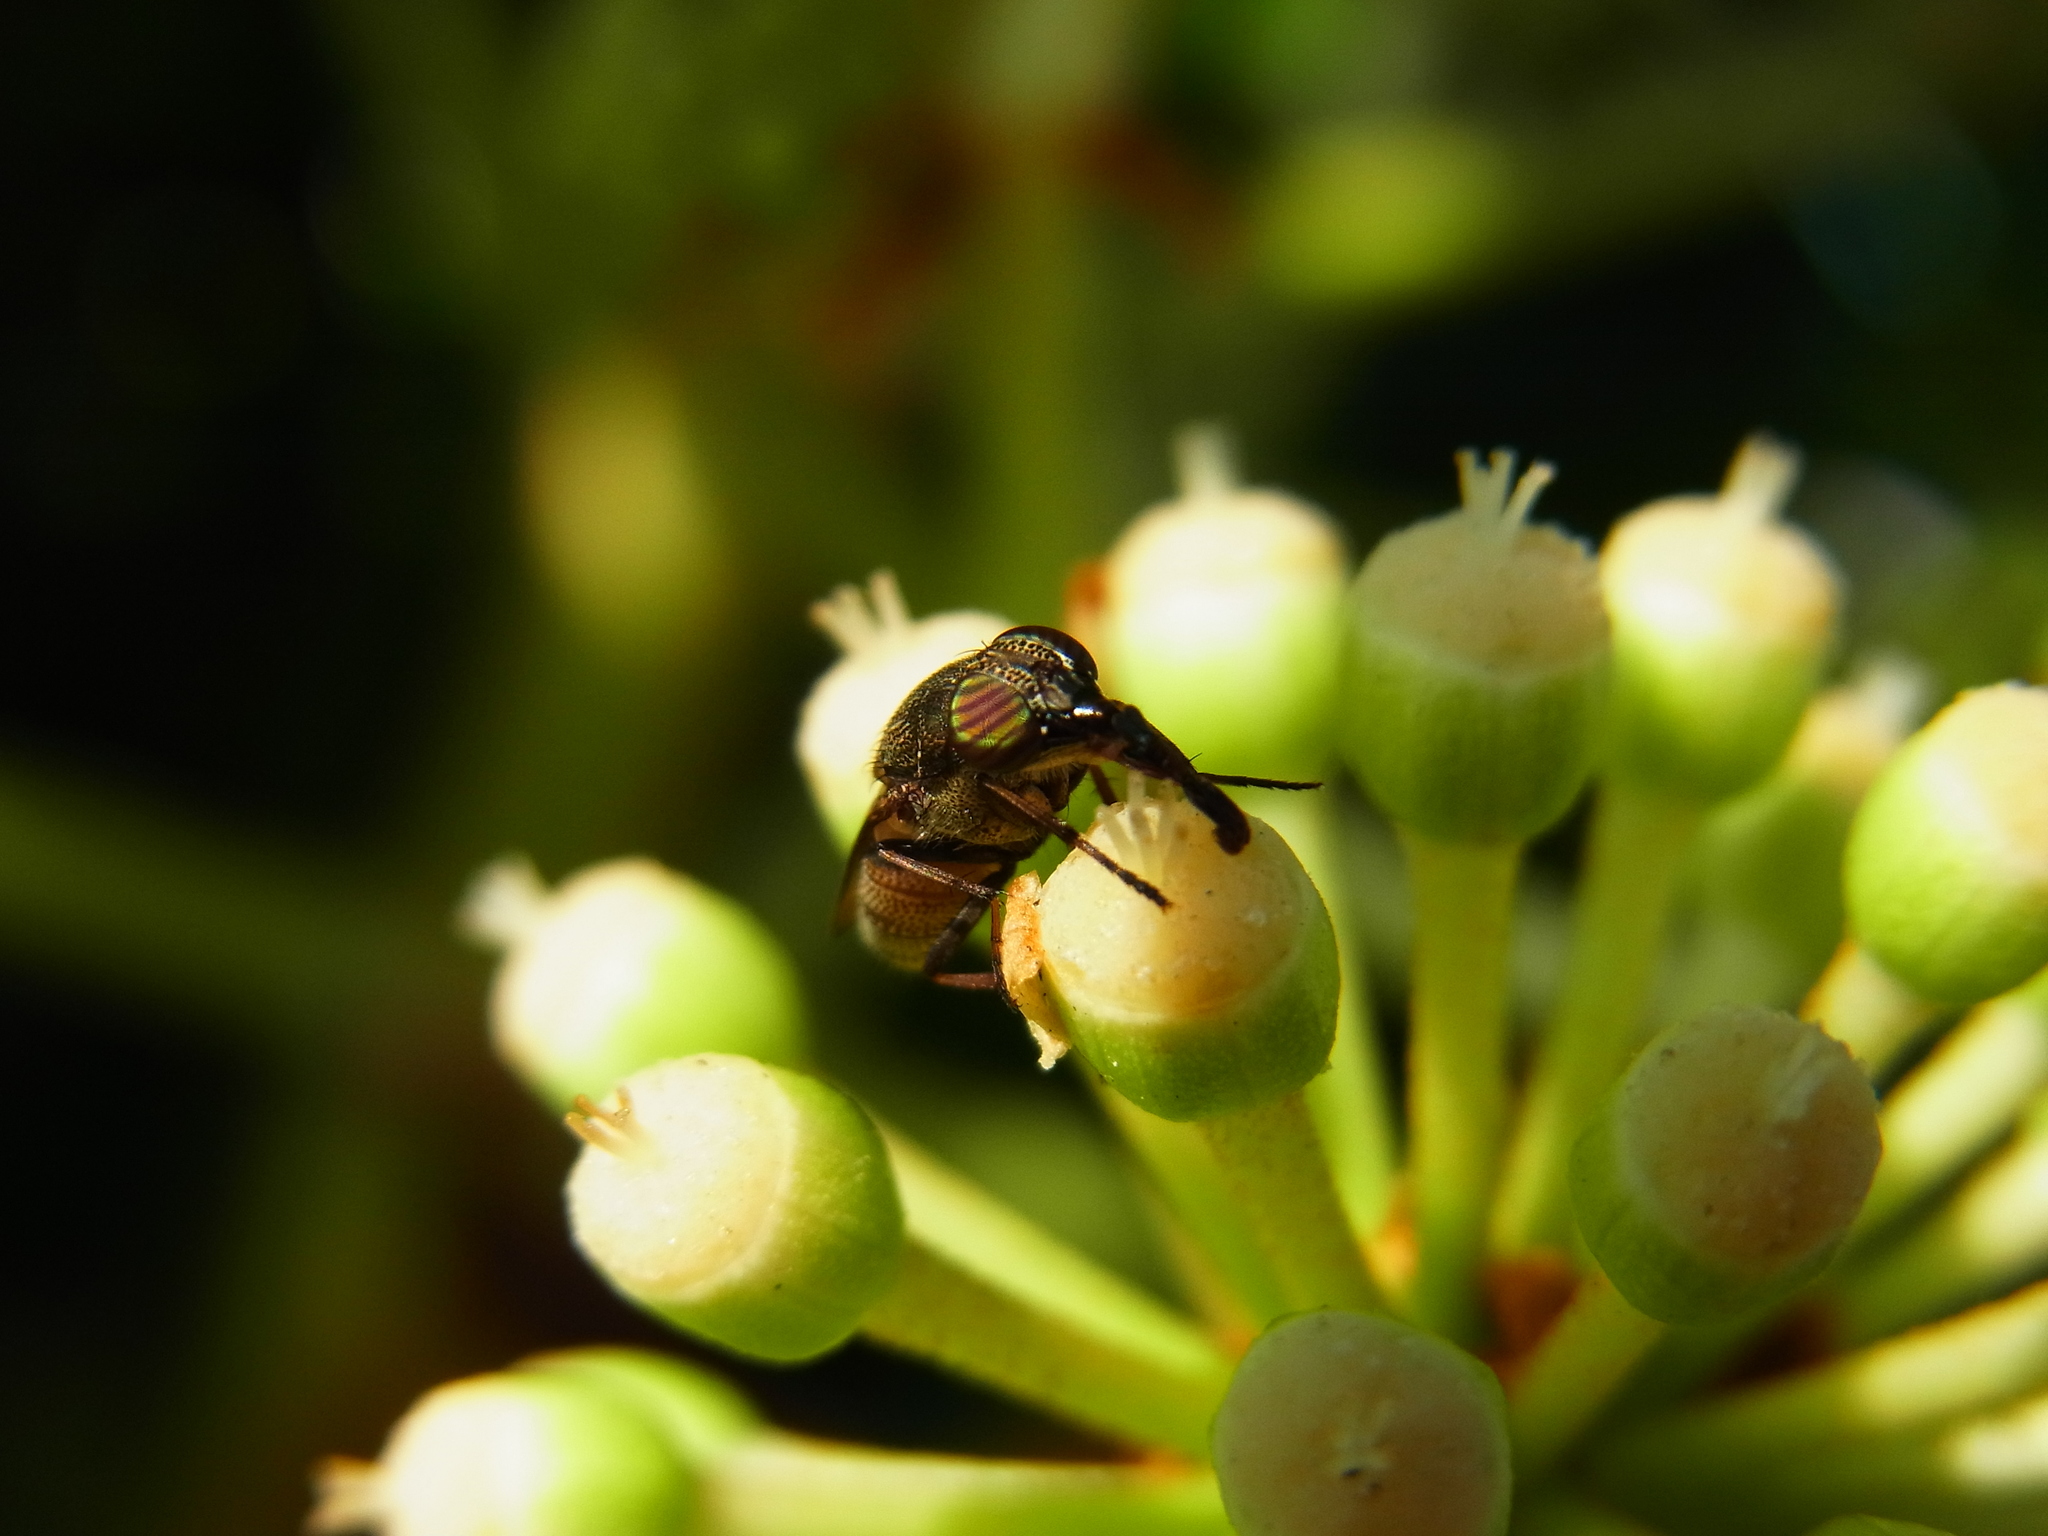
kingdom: Animalia
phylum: Arthropoda
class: Insecta
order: Diptera
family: Calliphoridae
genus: Rhinia
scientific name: Rhinia obsoleta
